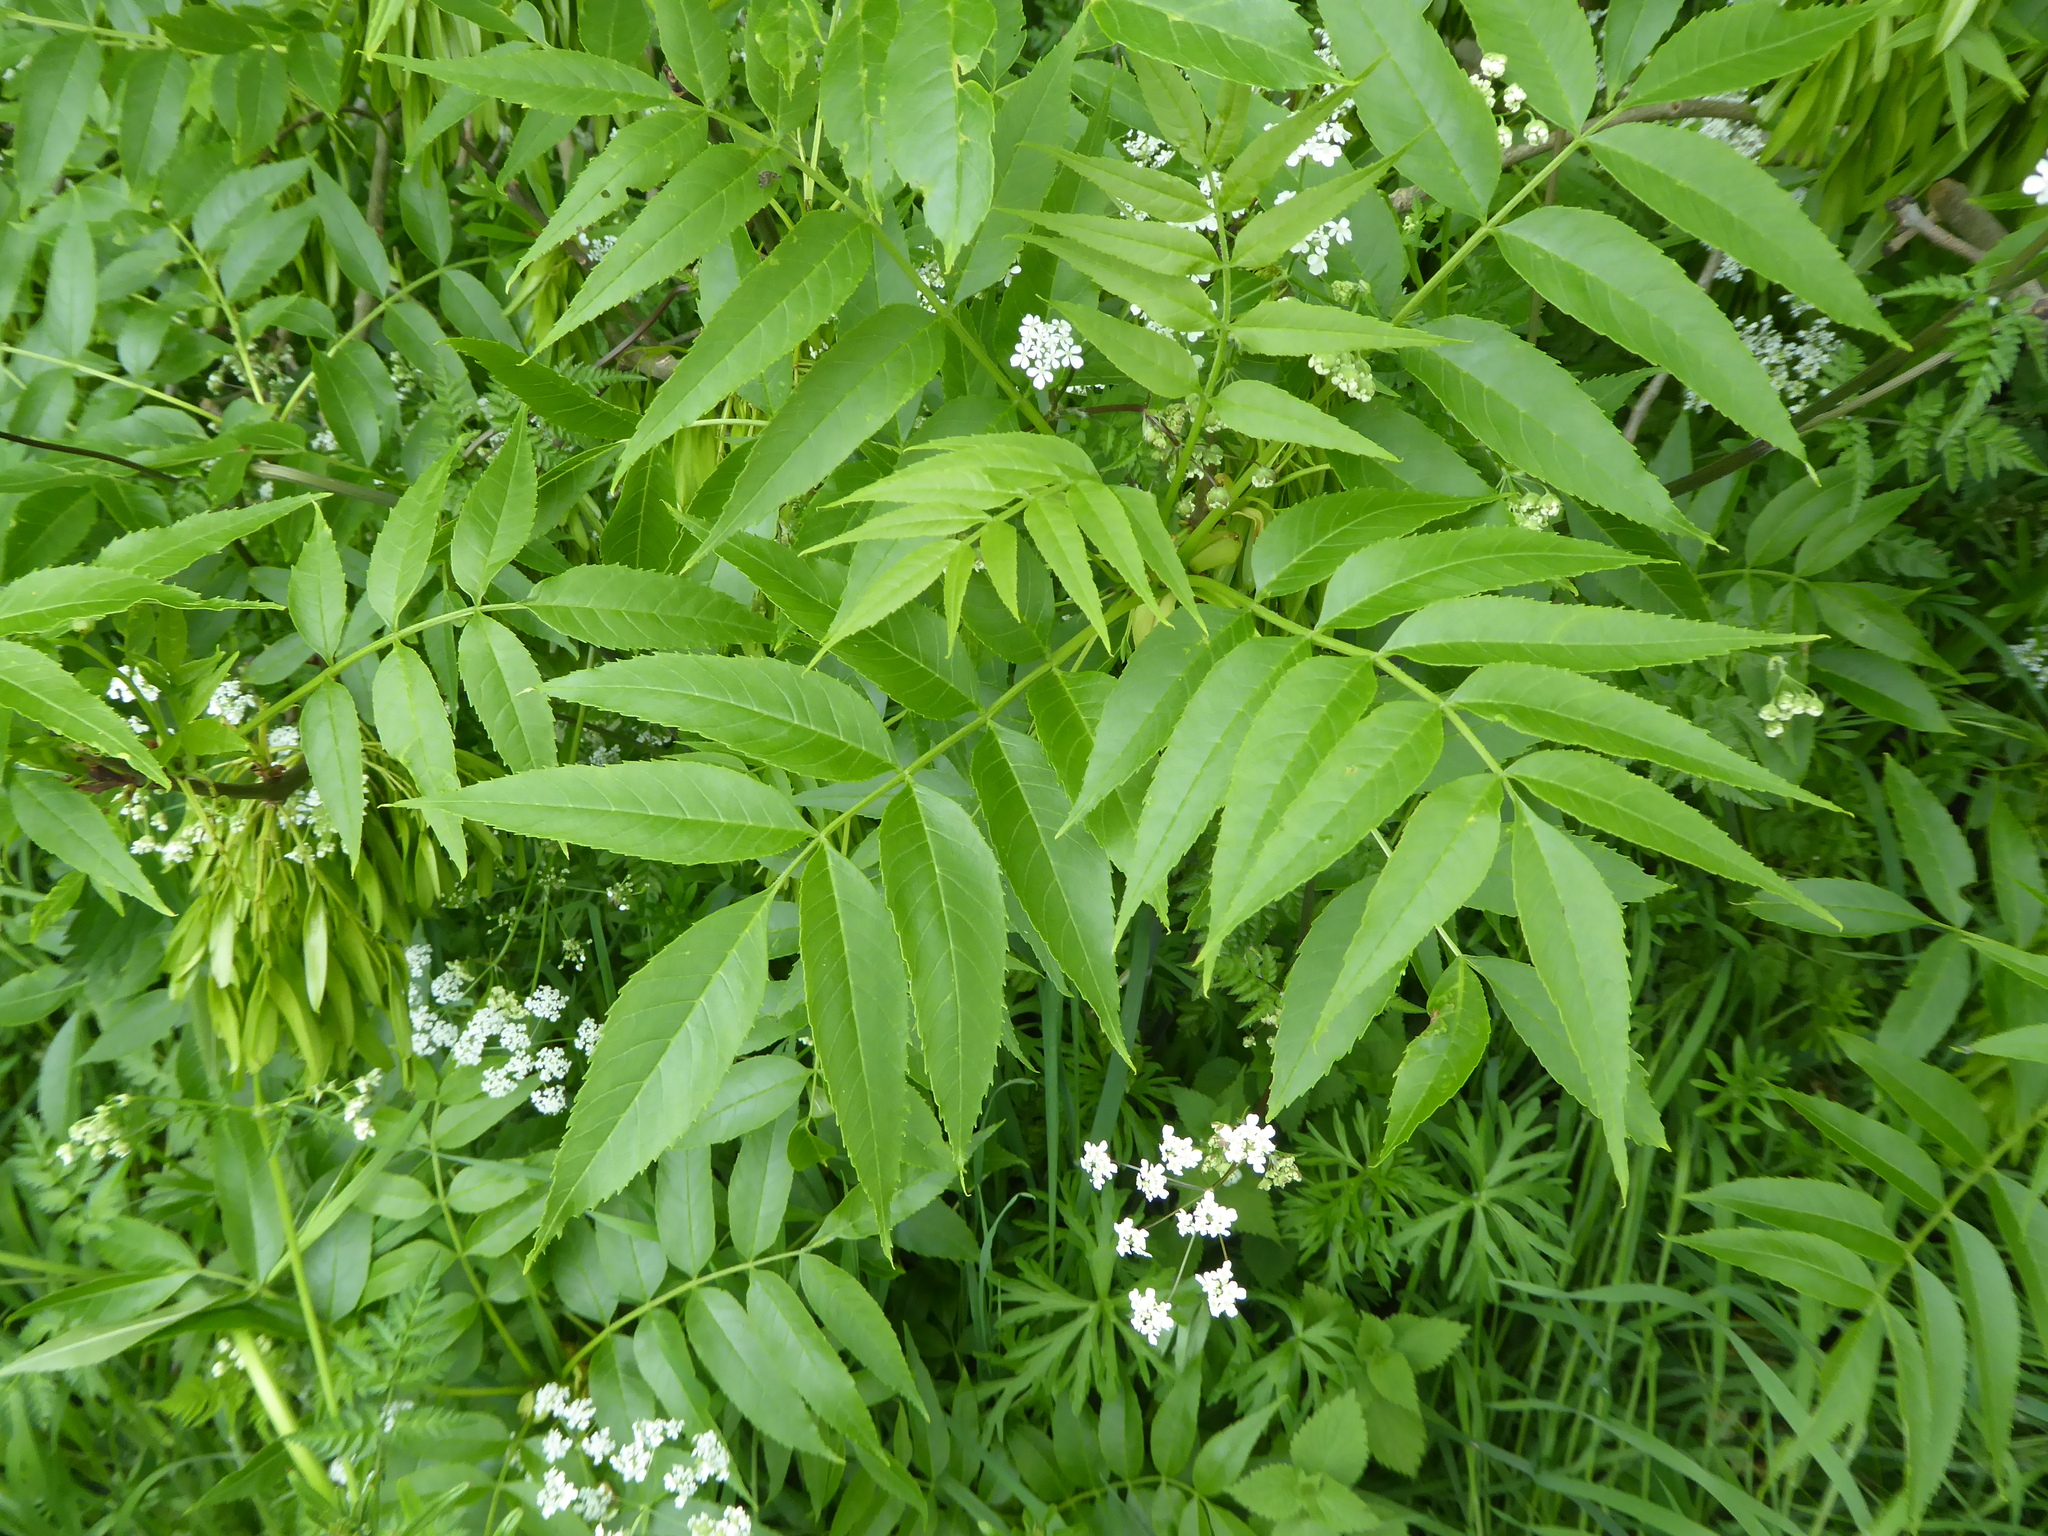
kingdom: Plantae
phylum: Tracheophyta
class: Magnoliopsida
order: Lamiales
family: Oleaceae
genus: Fraxinus
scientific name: Fraxinus excelsior
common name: European ash
